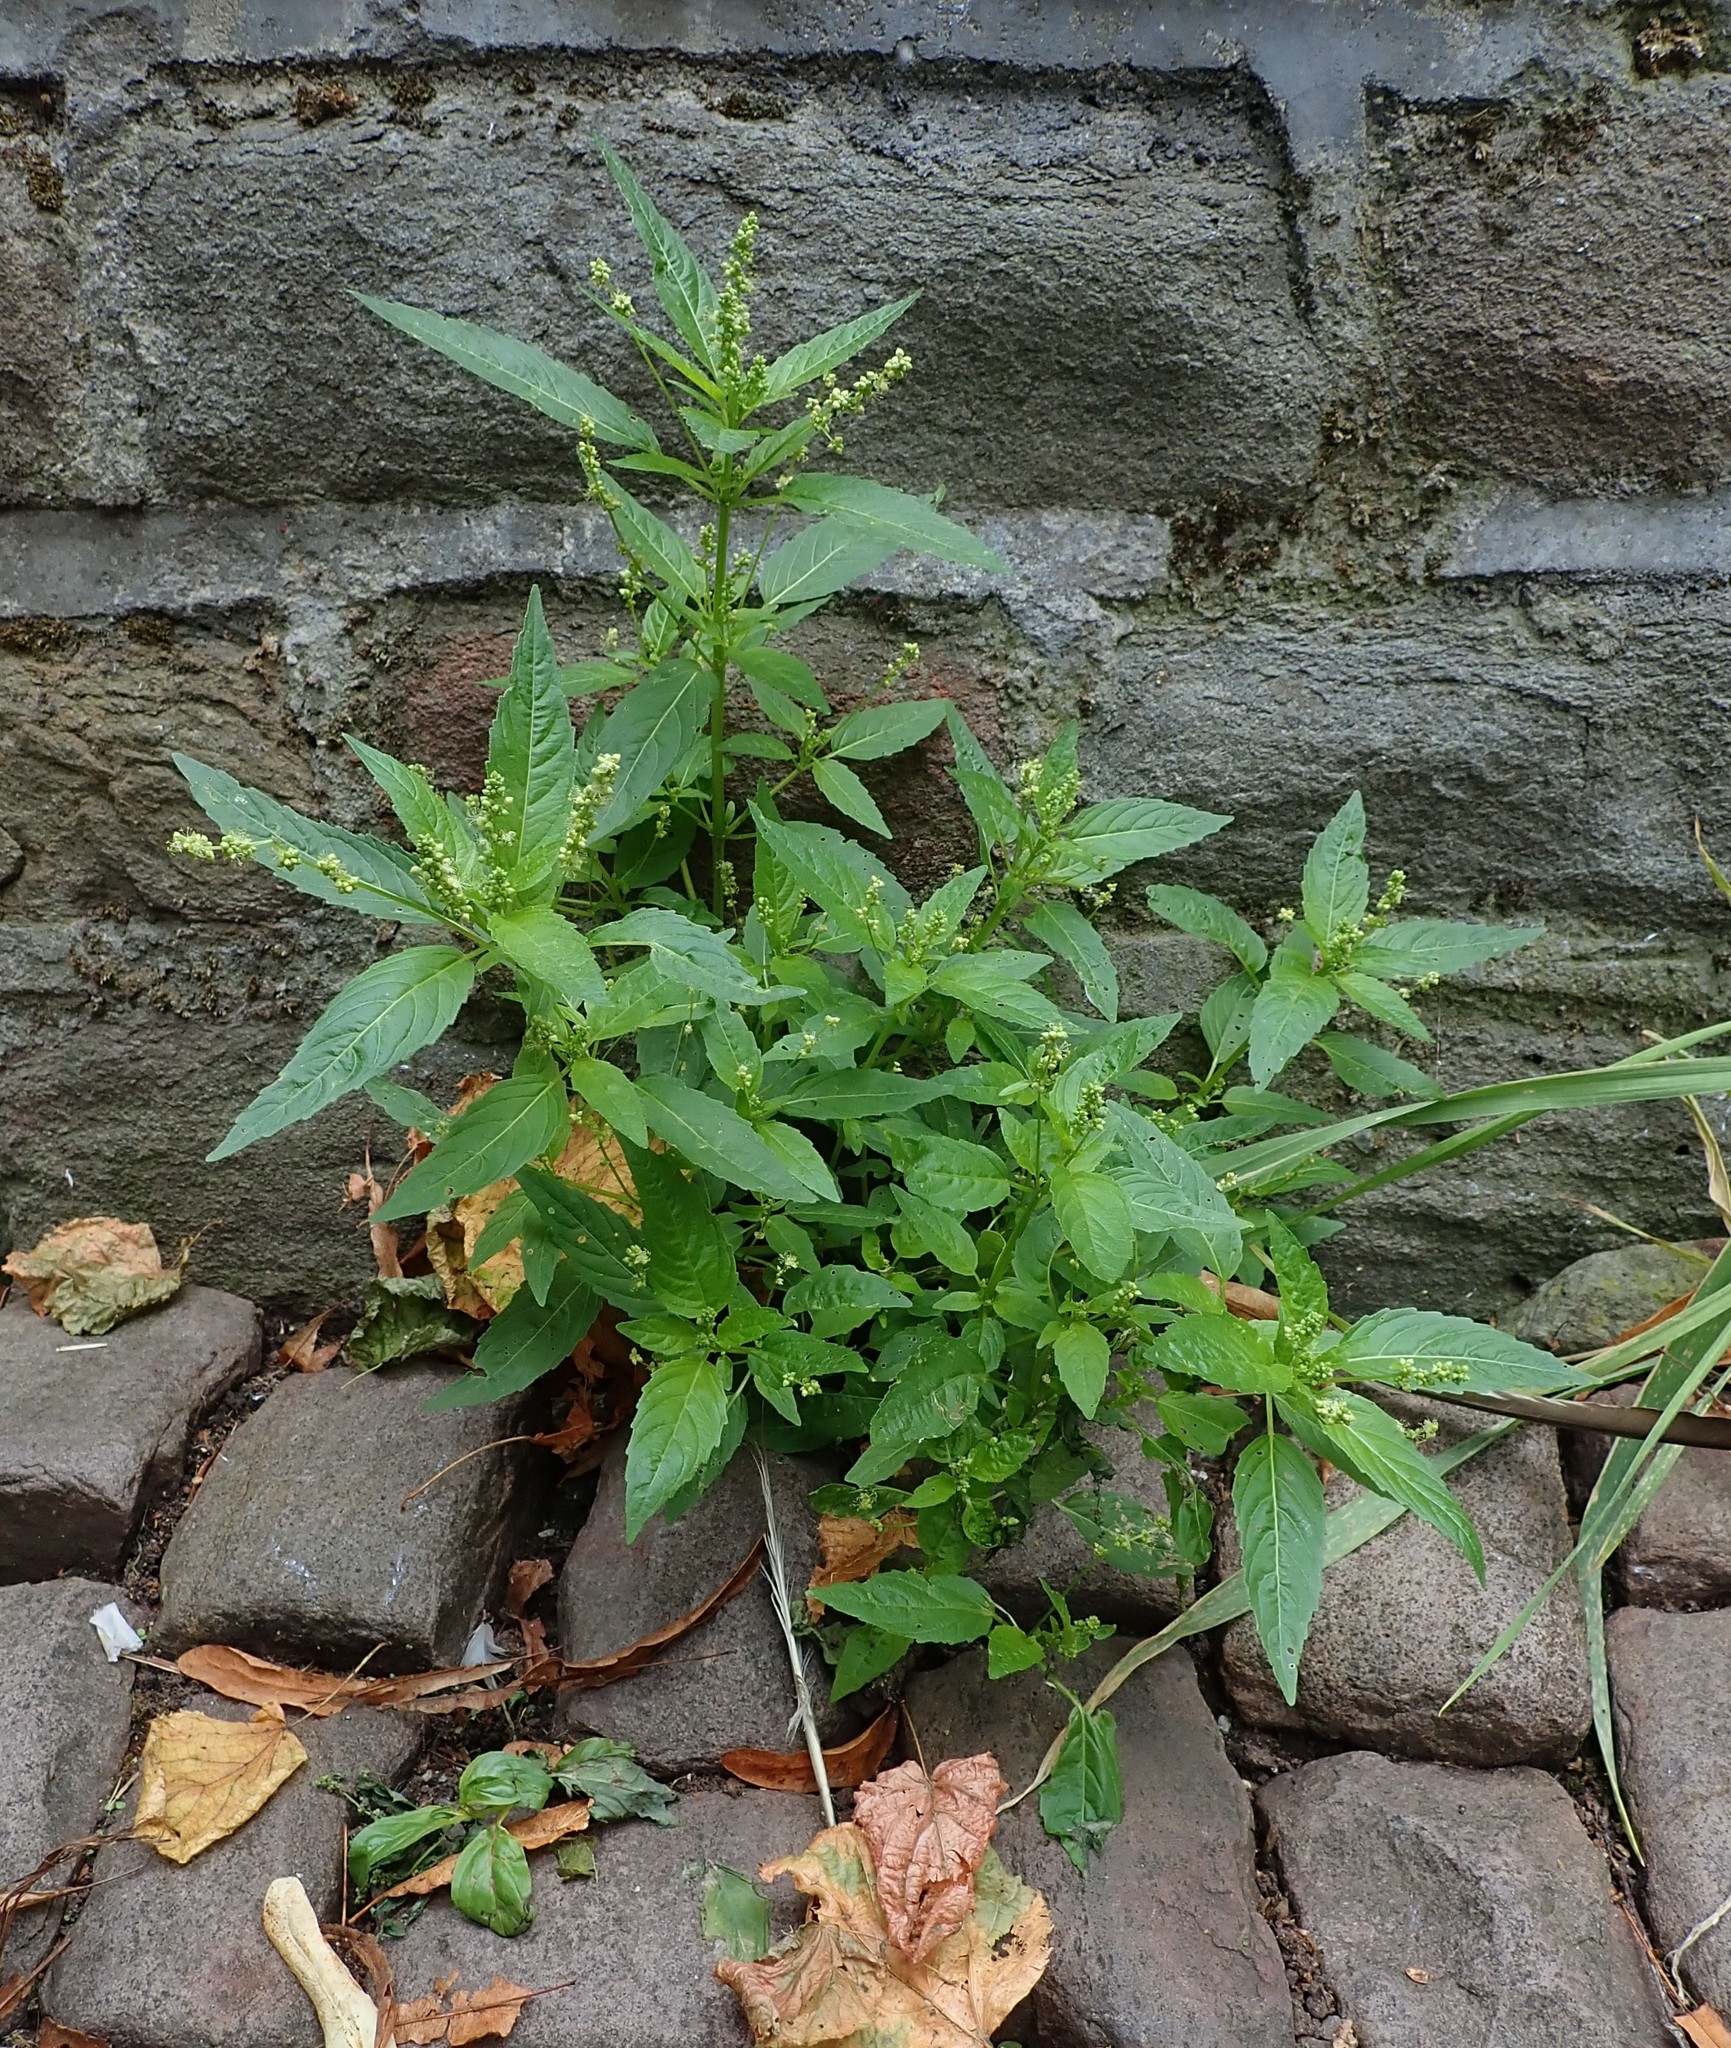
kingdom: Plantae
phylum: Tracheophyta
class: Magnoliopsida
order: Malpighiales
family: Euphorbiaceae
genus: Mercurialis
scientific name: Mercurialis annua
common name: Annual mercury
